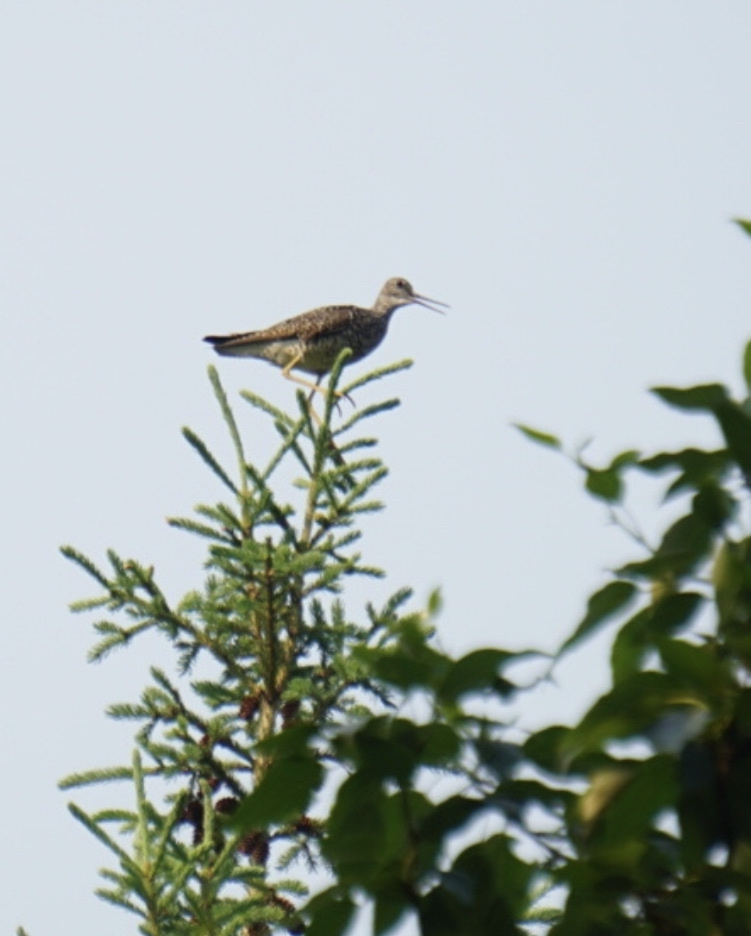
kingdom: Animalia
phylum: Chordata
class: Aves
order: Charadriiformes
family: Scolopacidae
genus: Bartramia
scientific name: Bartramia longicauda
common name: Upland sandpiper
